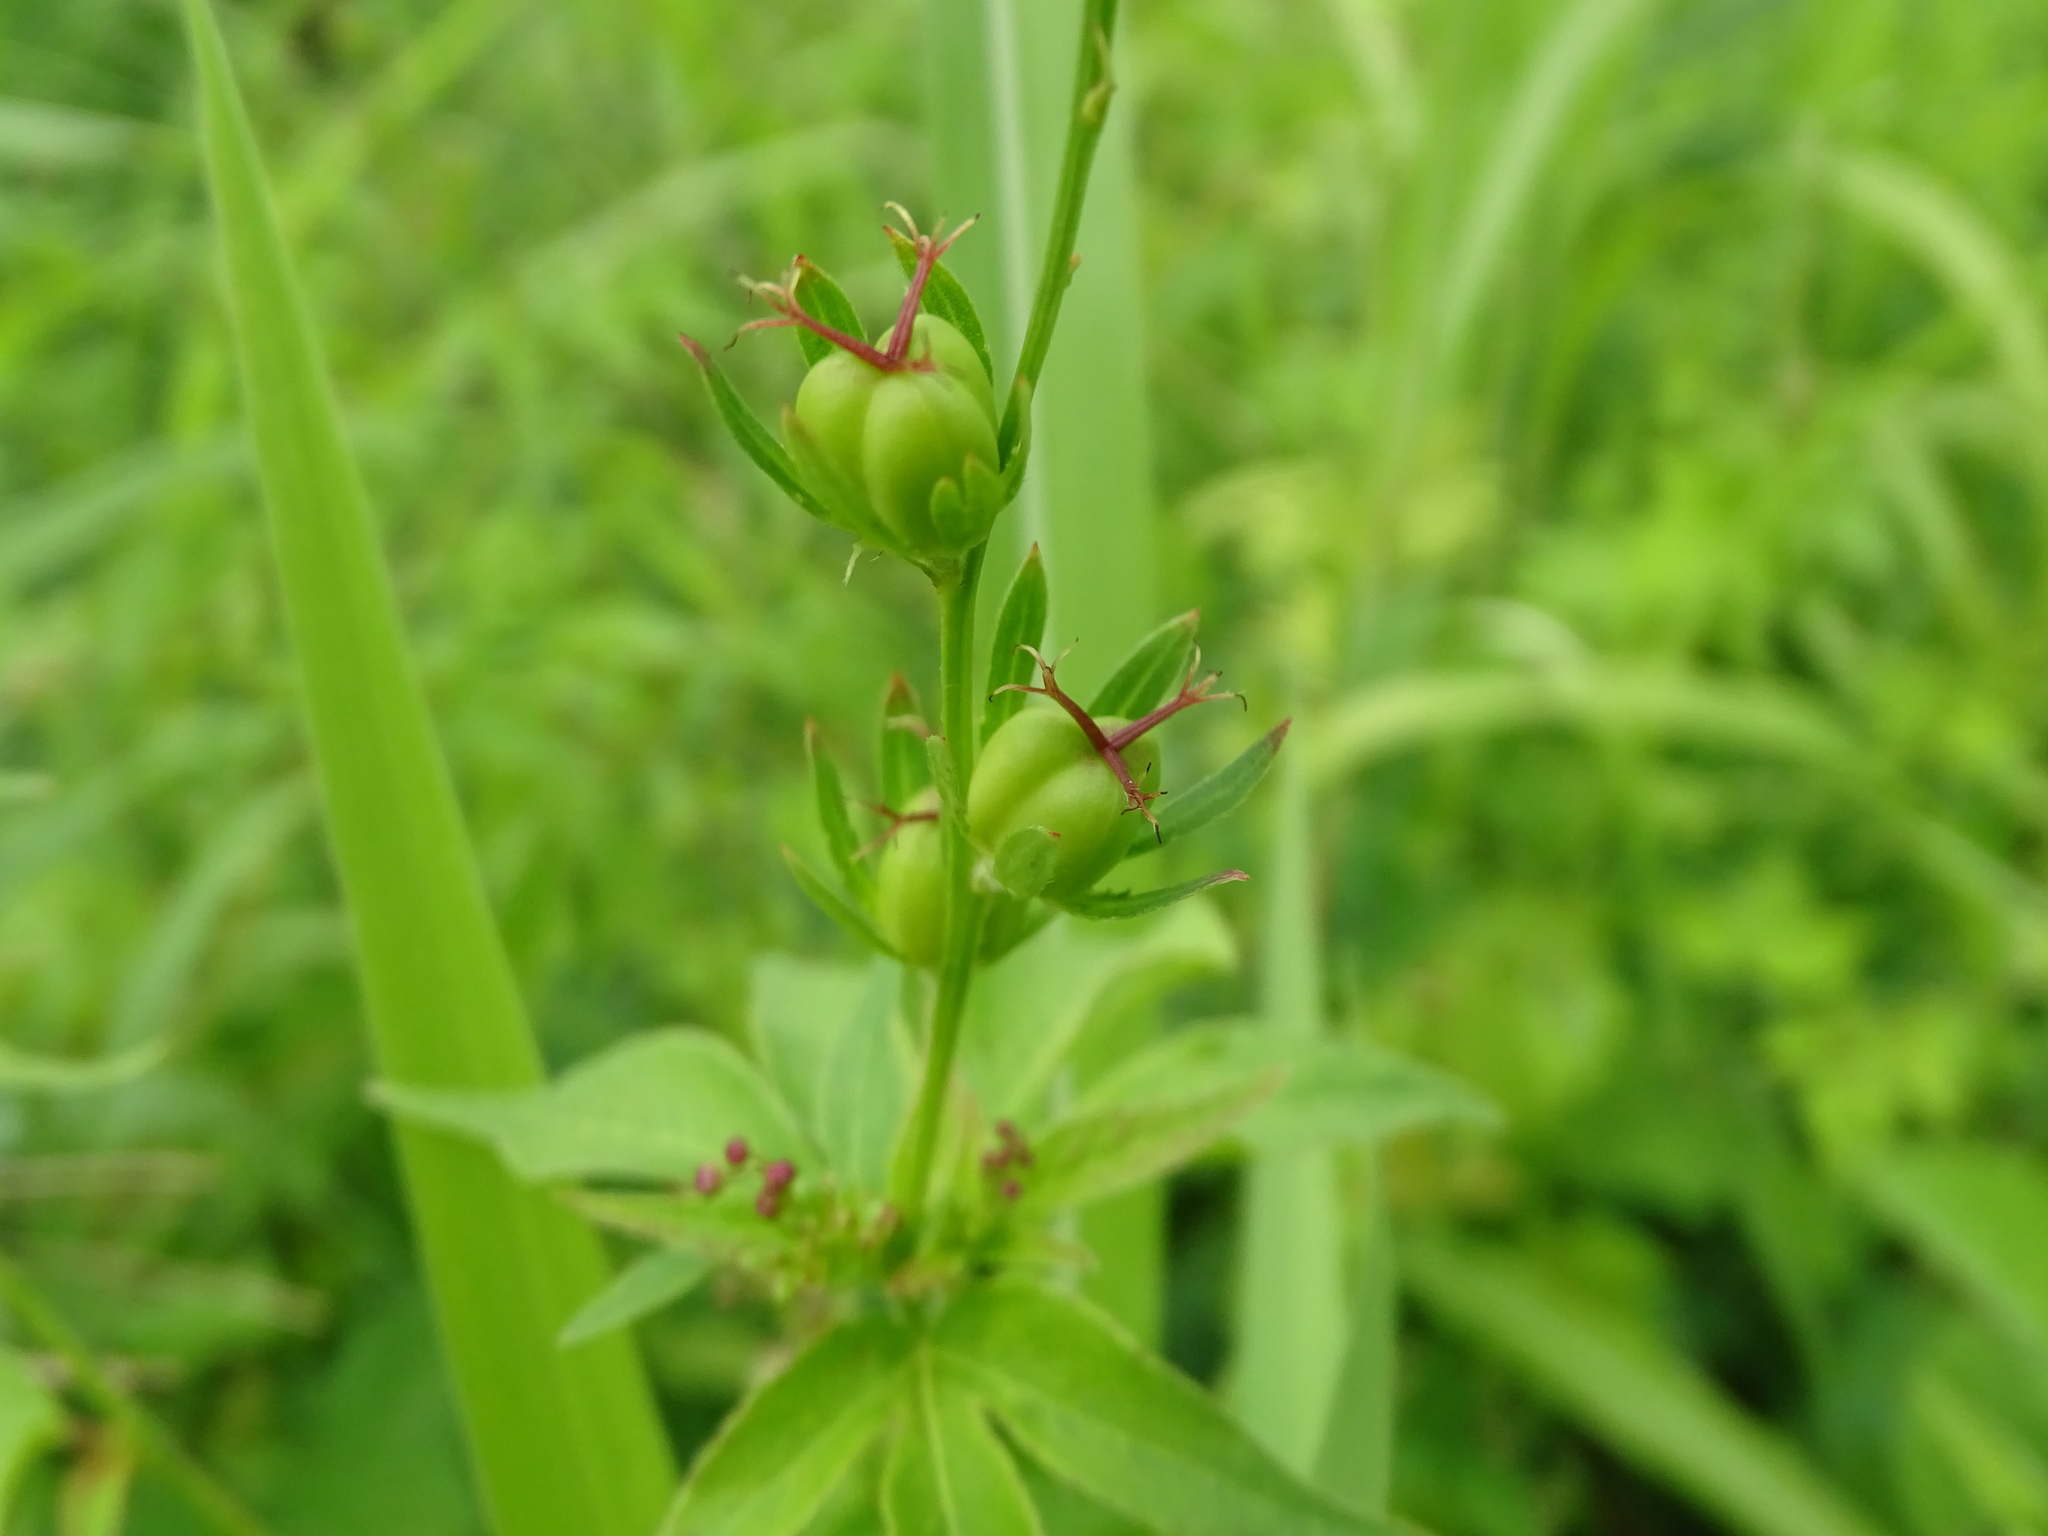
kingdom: Plantae
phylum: Tracheophyta
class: Magnoliopsida
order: Malpighiales
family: Euphorbiaceae
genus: Astraea
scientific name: Astraea lobata
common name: Lobed croton
